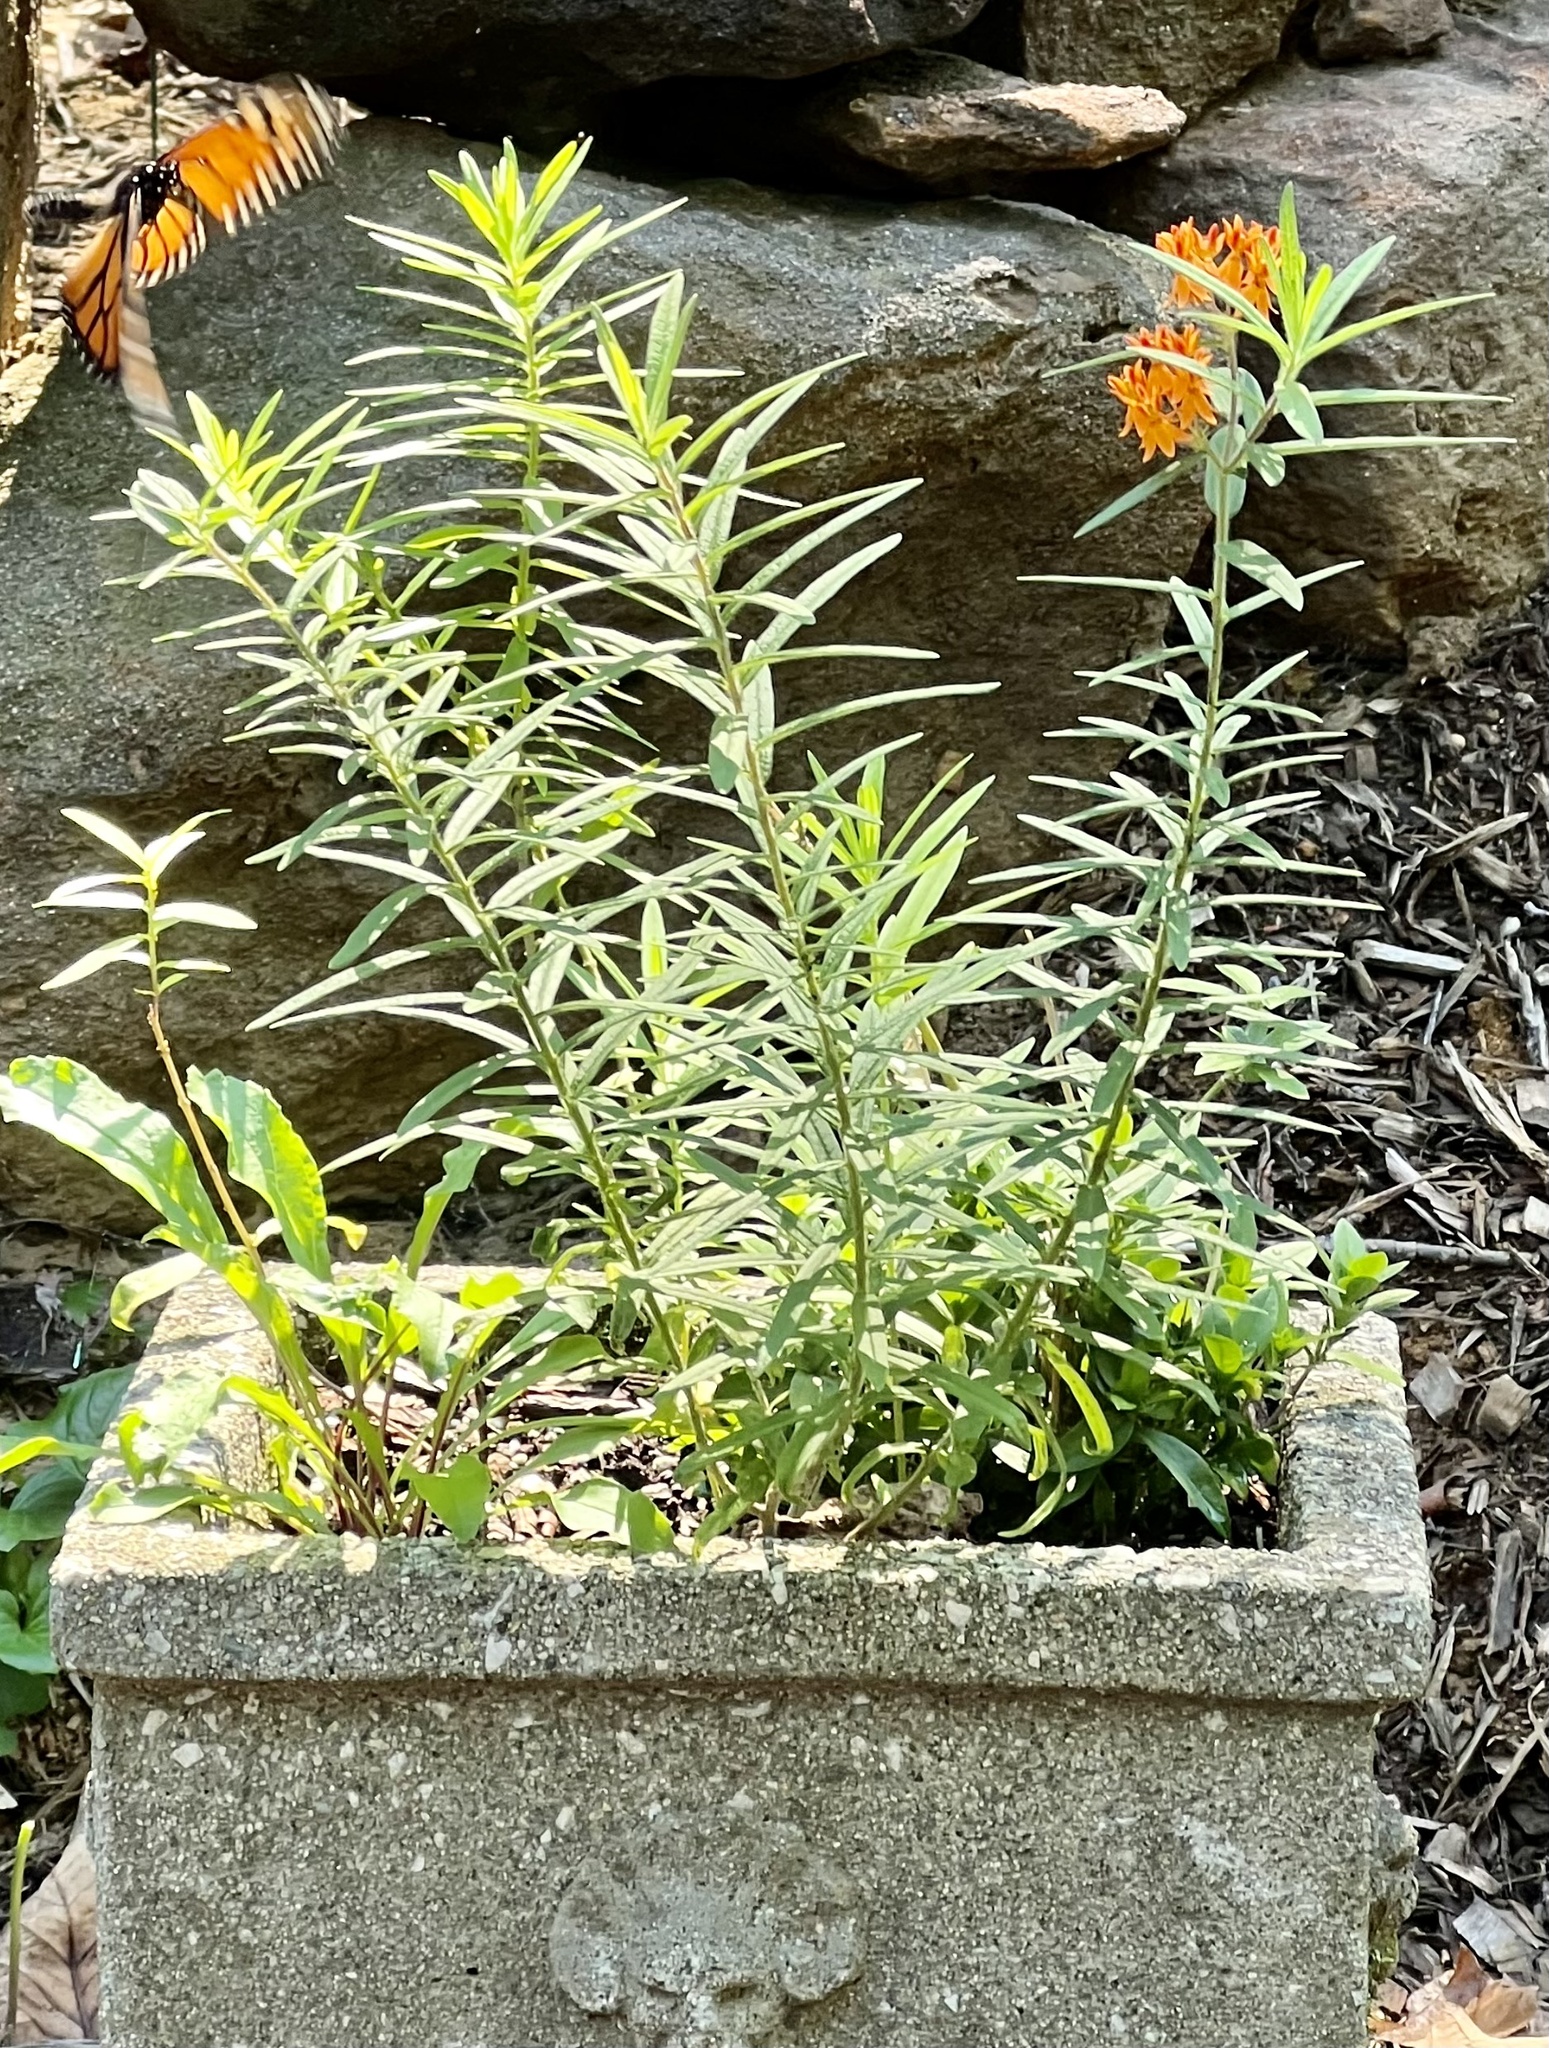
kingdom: Animalia
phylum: Arthropoda
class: Insecta
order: Lepidoptera
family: Nymphalidae
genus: Danaus
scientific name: Danaus plexippus
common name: Monarch
